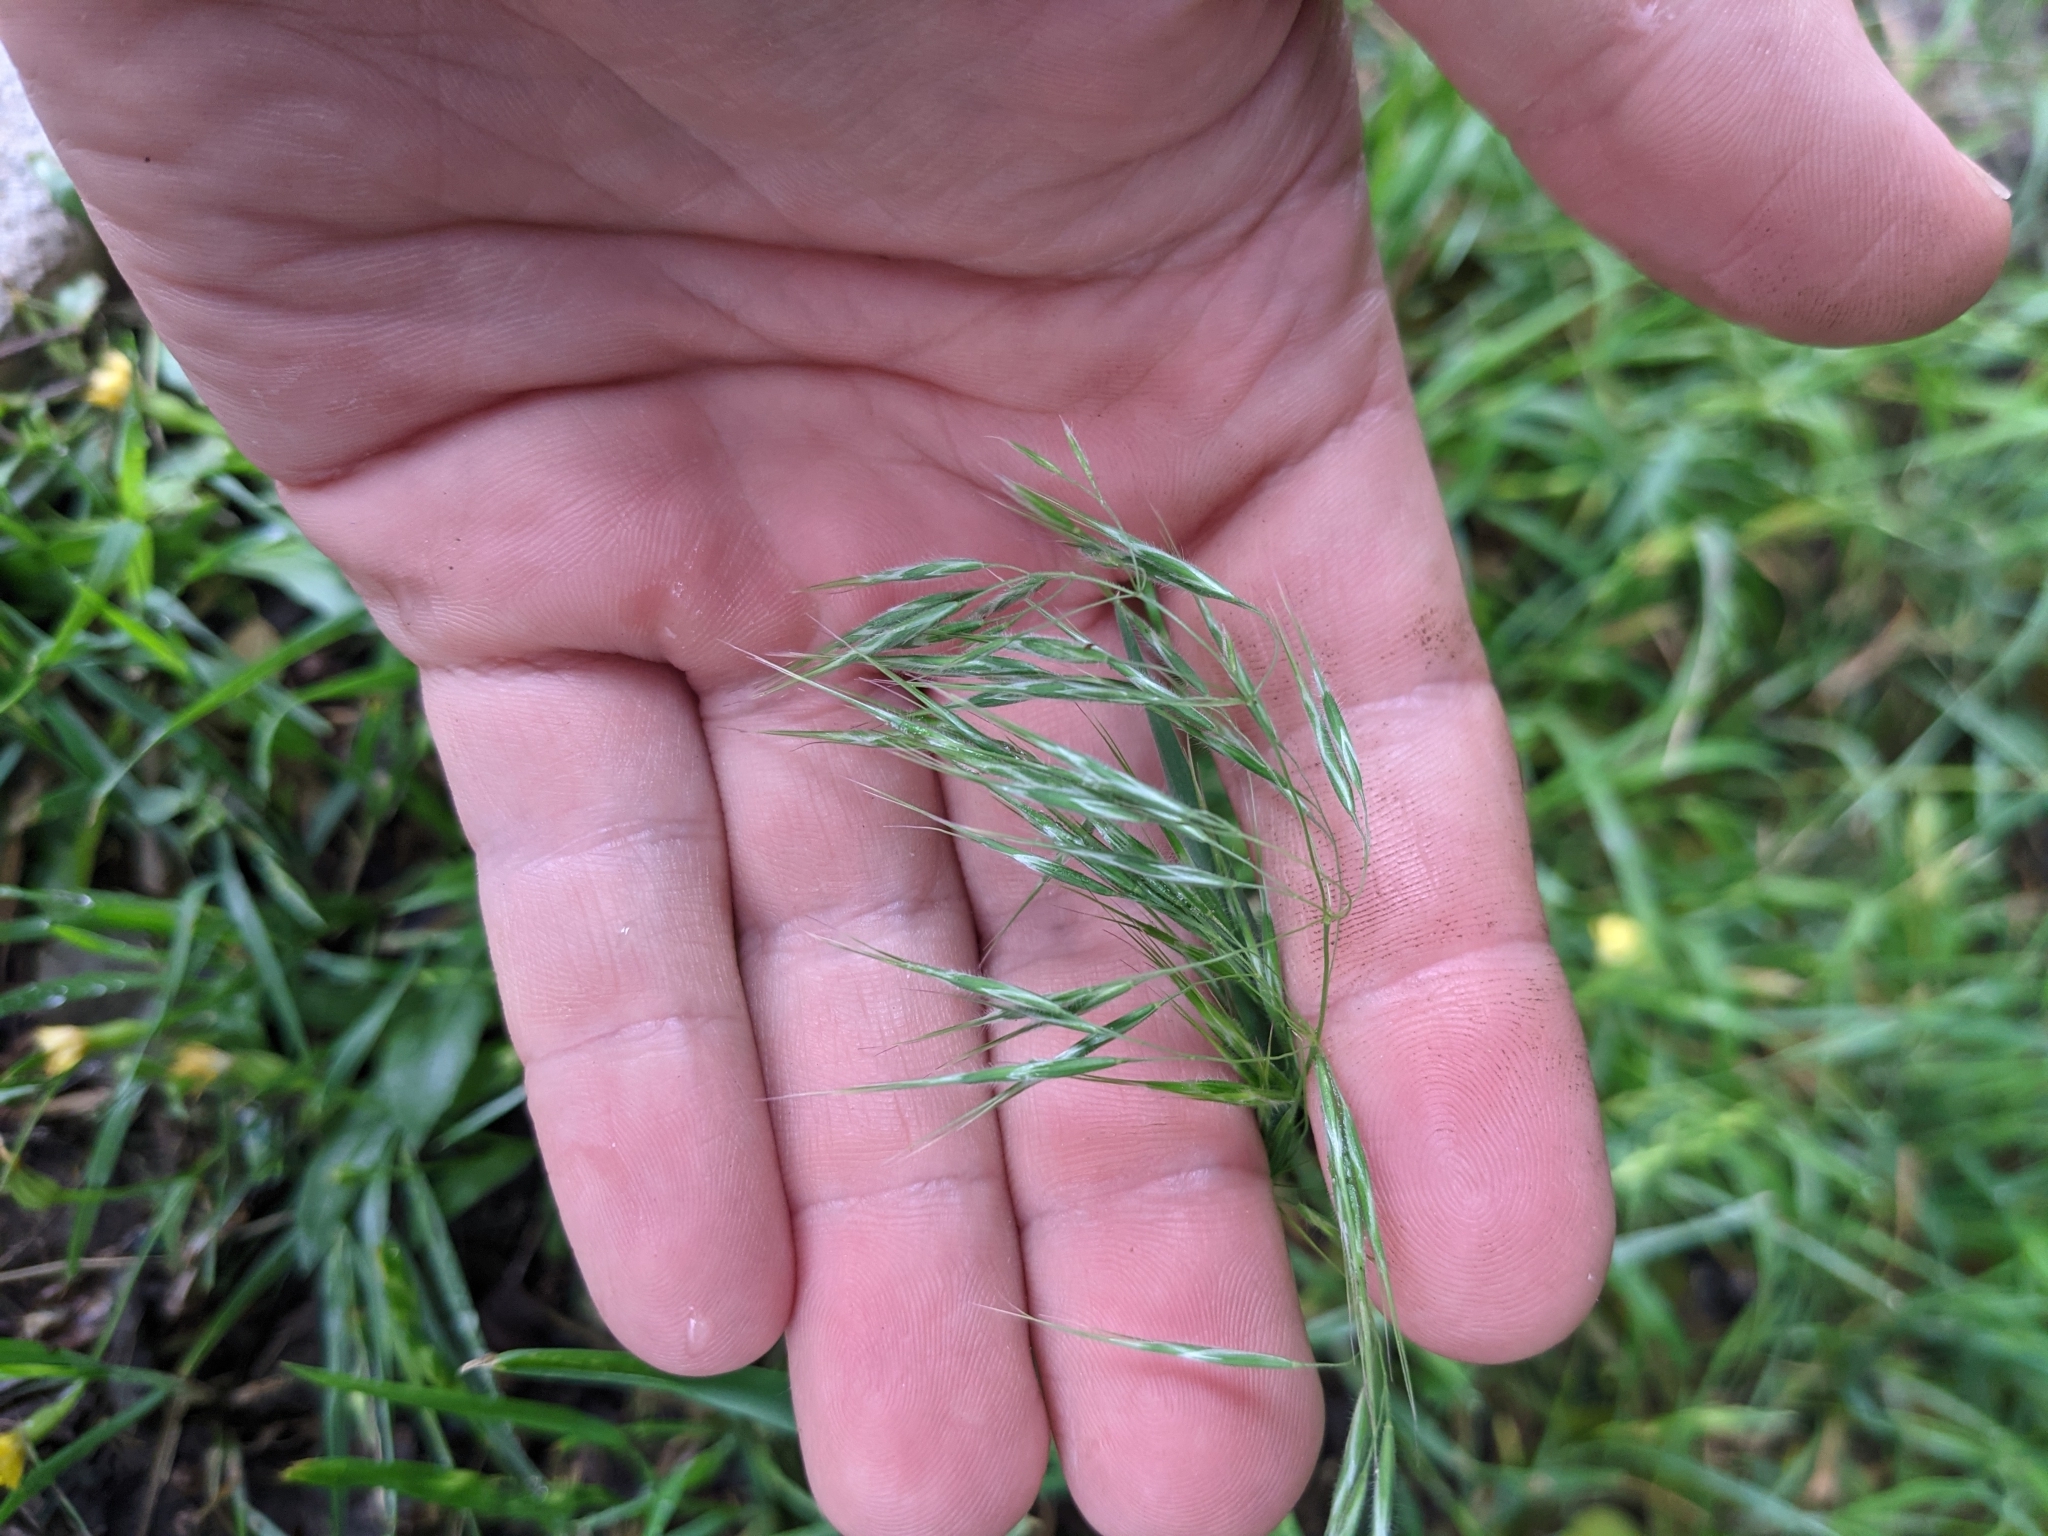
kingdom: Plantae
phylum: Tracheophyta
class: Liliopsida
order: Poales
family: Poaceae
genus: Bromus
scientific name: Bromus tectorum
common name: Cheatgrass
